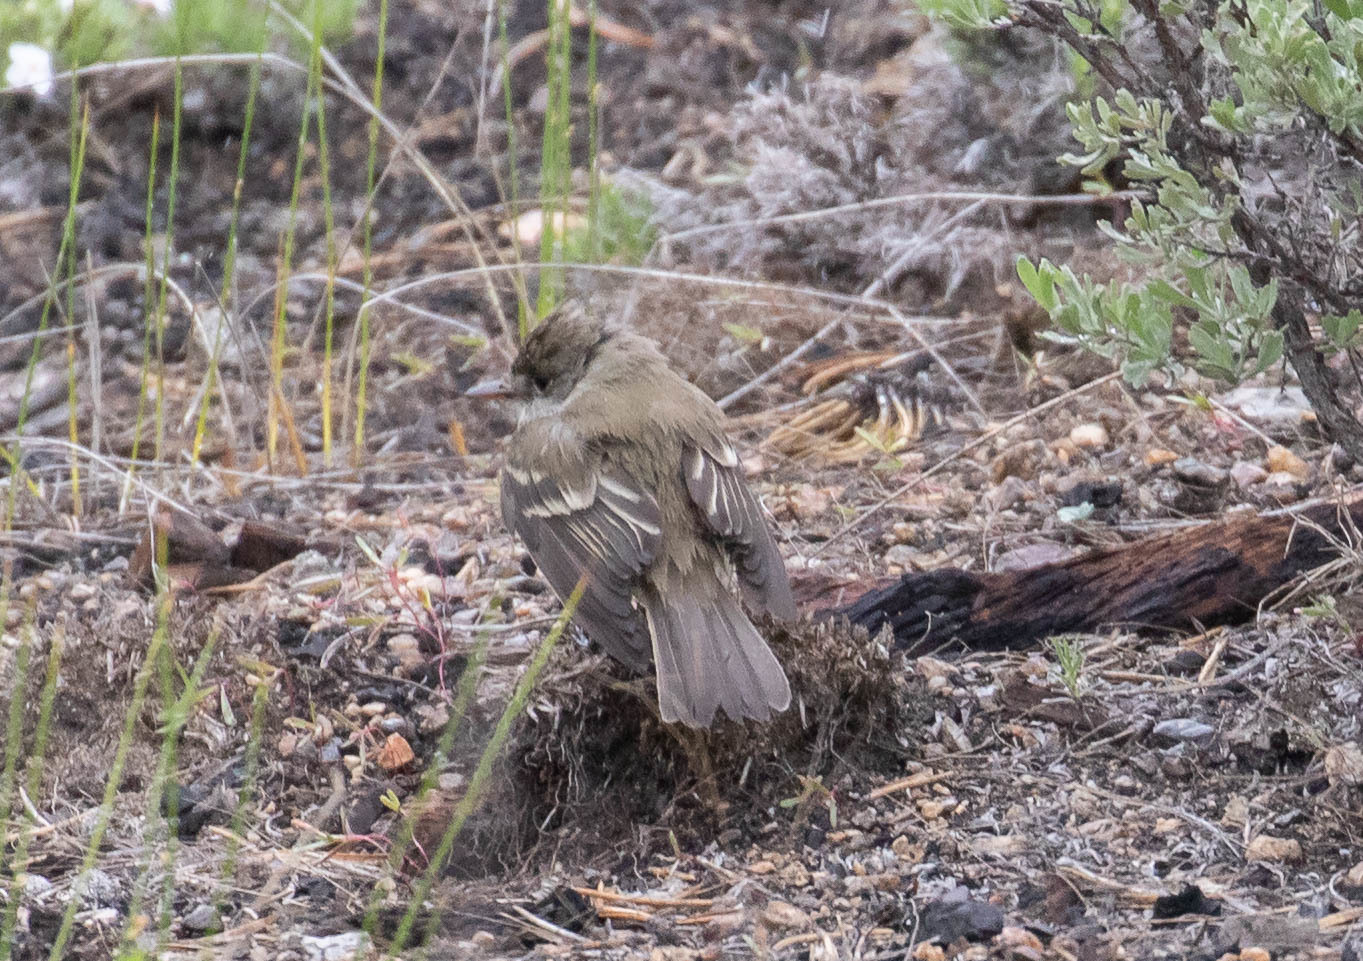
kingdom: Animalia
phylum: Chordata
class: Aves
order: Passeriformes
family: Tyrannidae
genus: Contopus
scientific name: Contopus sordidulus
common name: Western wood-pewee
